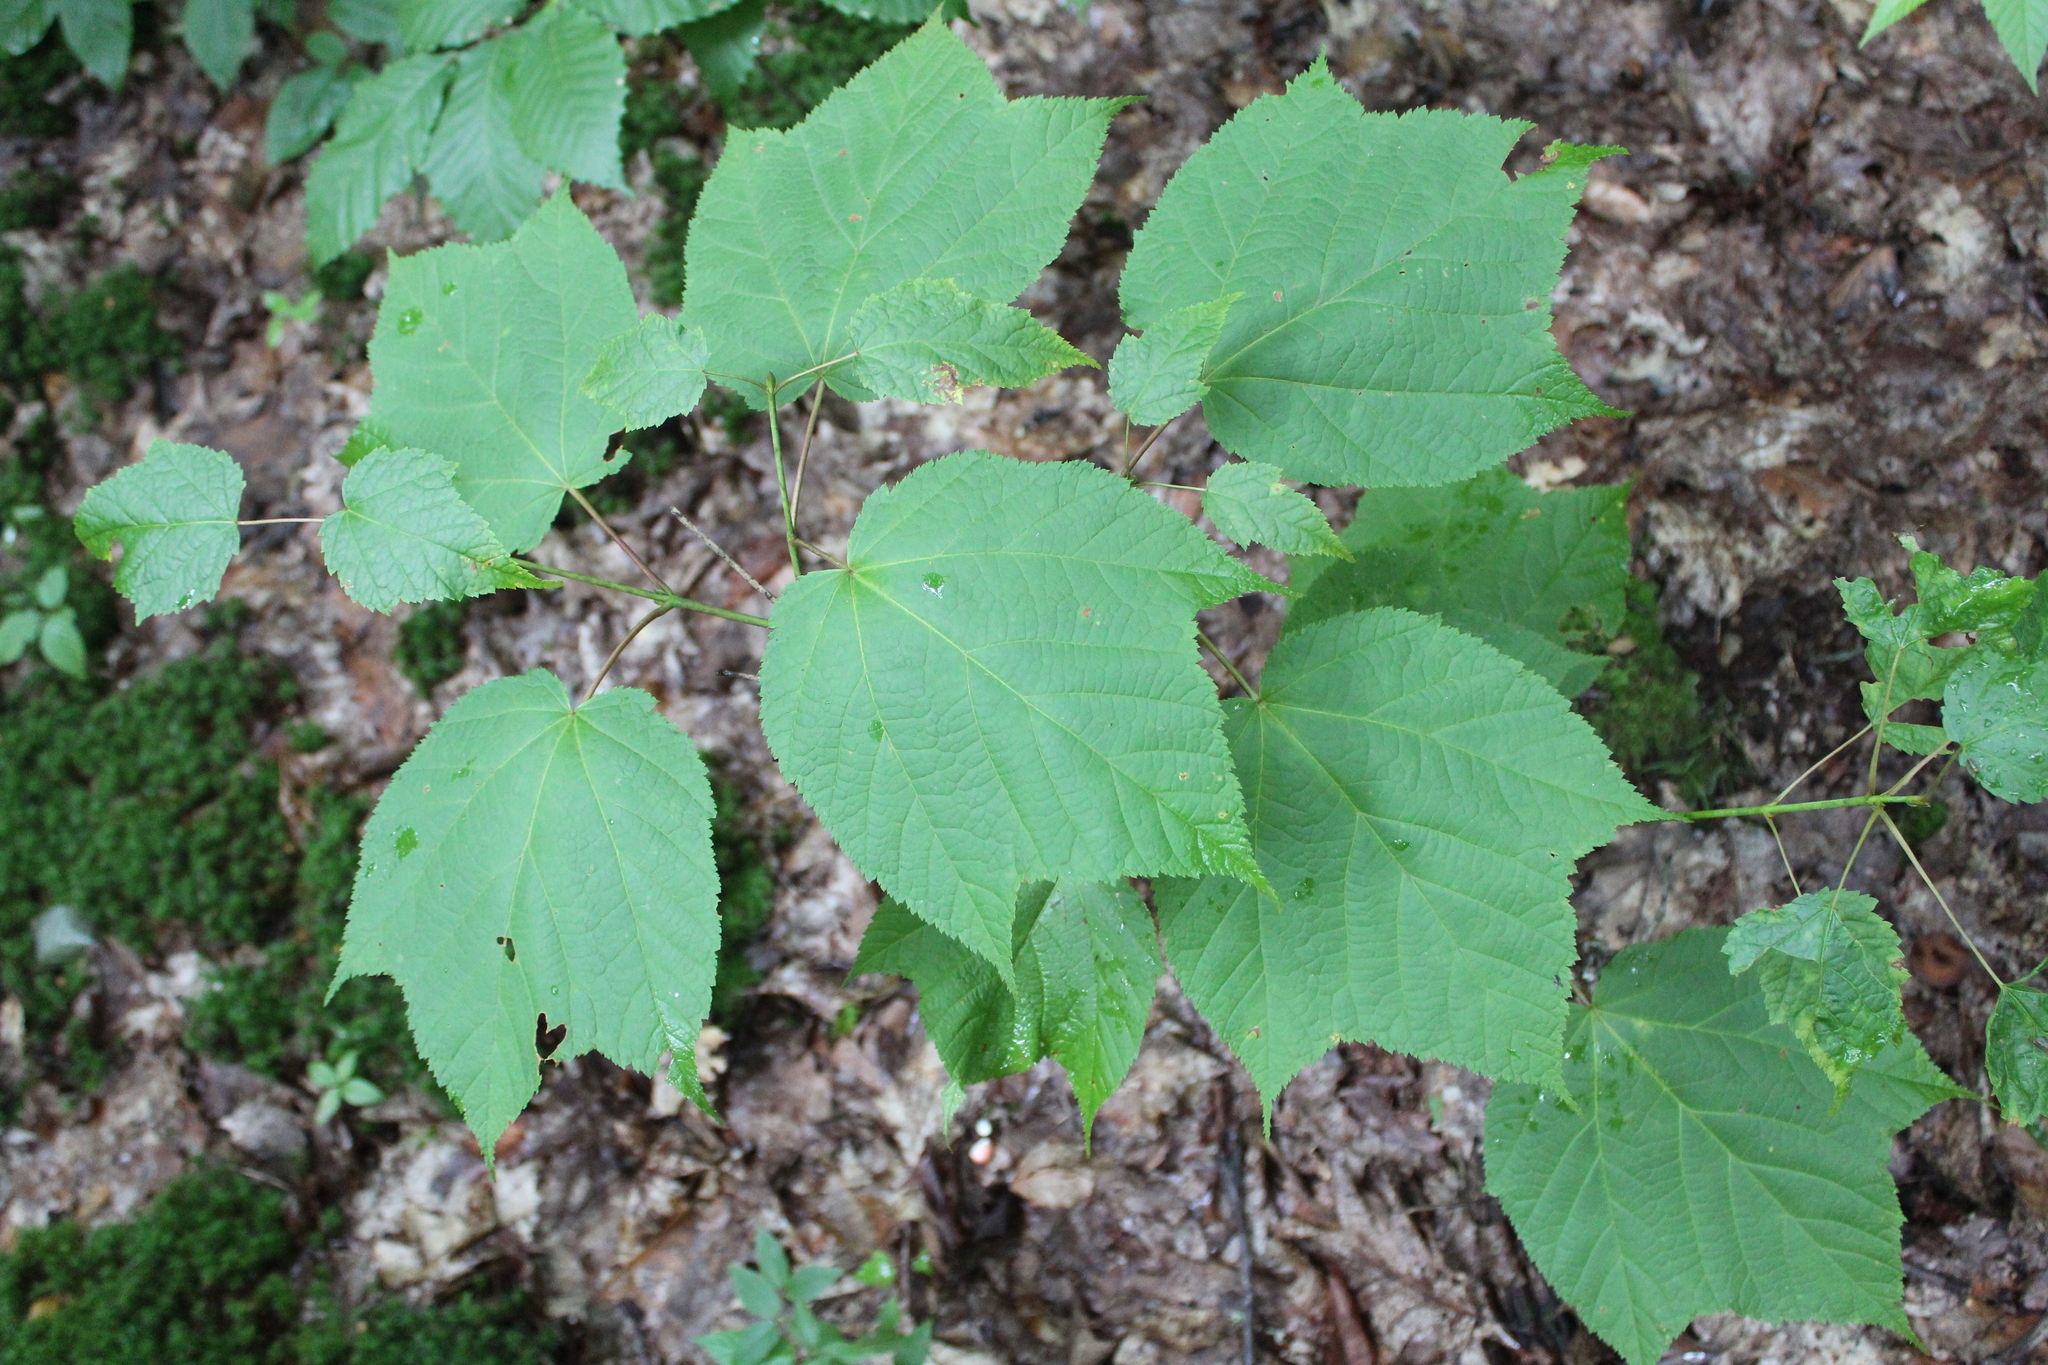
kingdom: Plantae
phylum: Tracheophyta
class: Magnoliopsida
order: Sapindales
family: Sapindaceae
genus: Acer
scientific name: Acer pensylvanicum
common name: Moosewood
